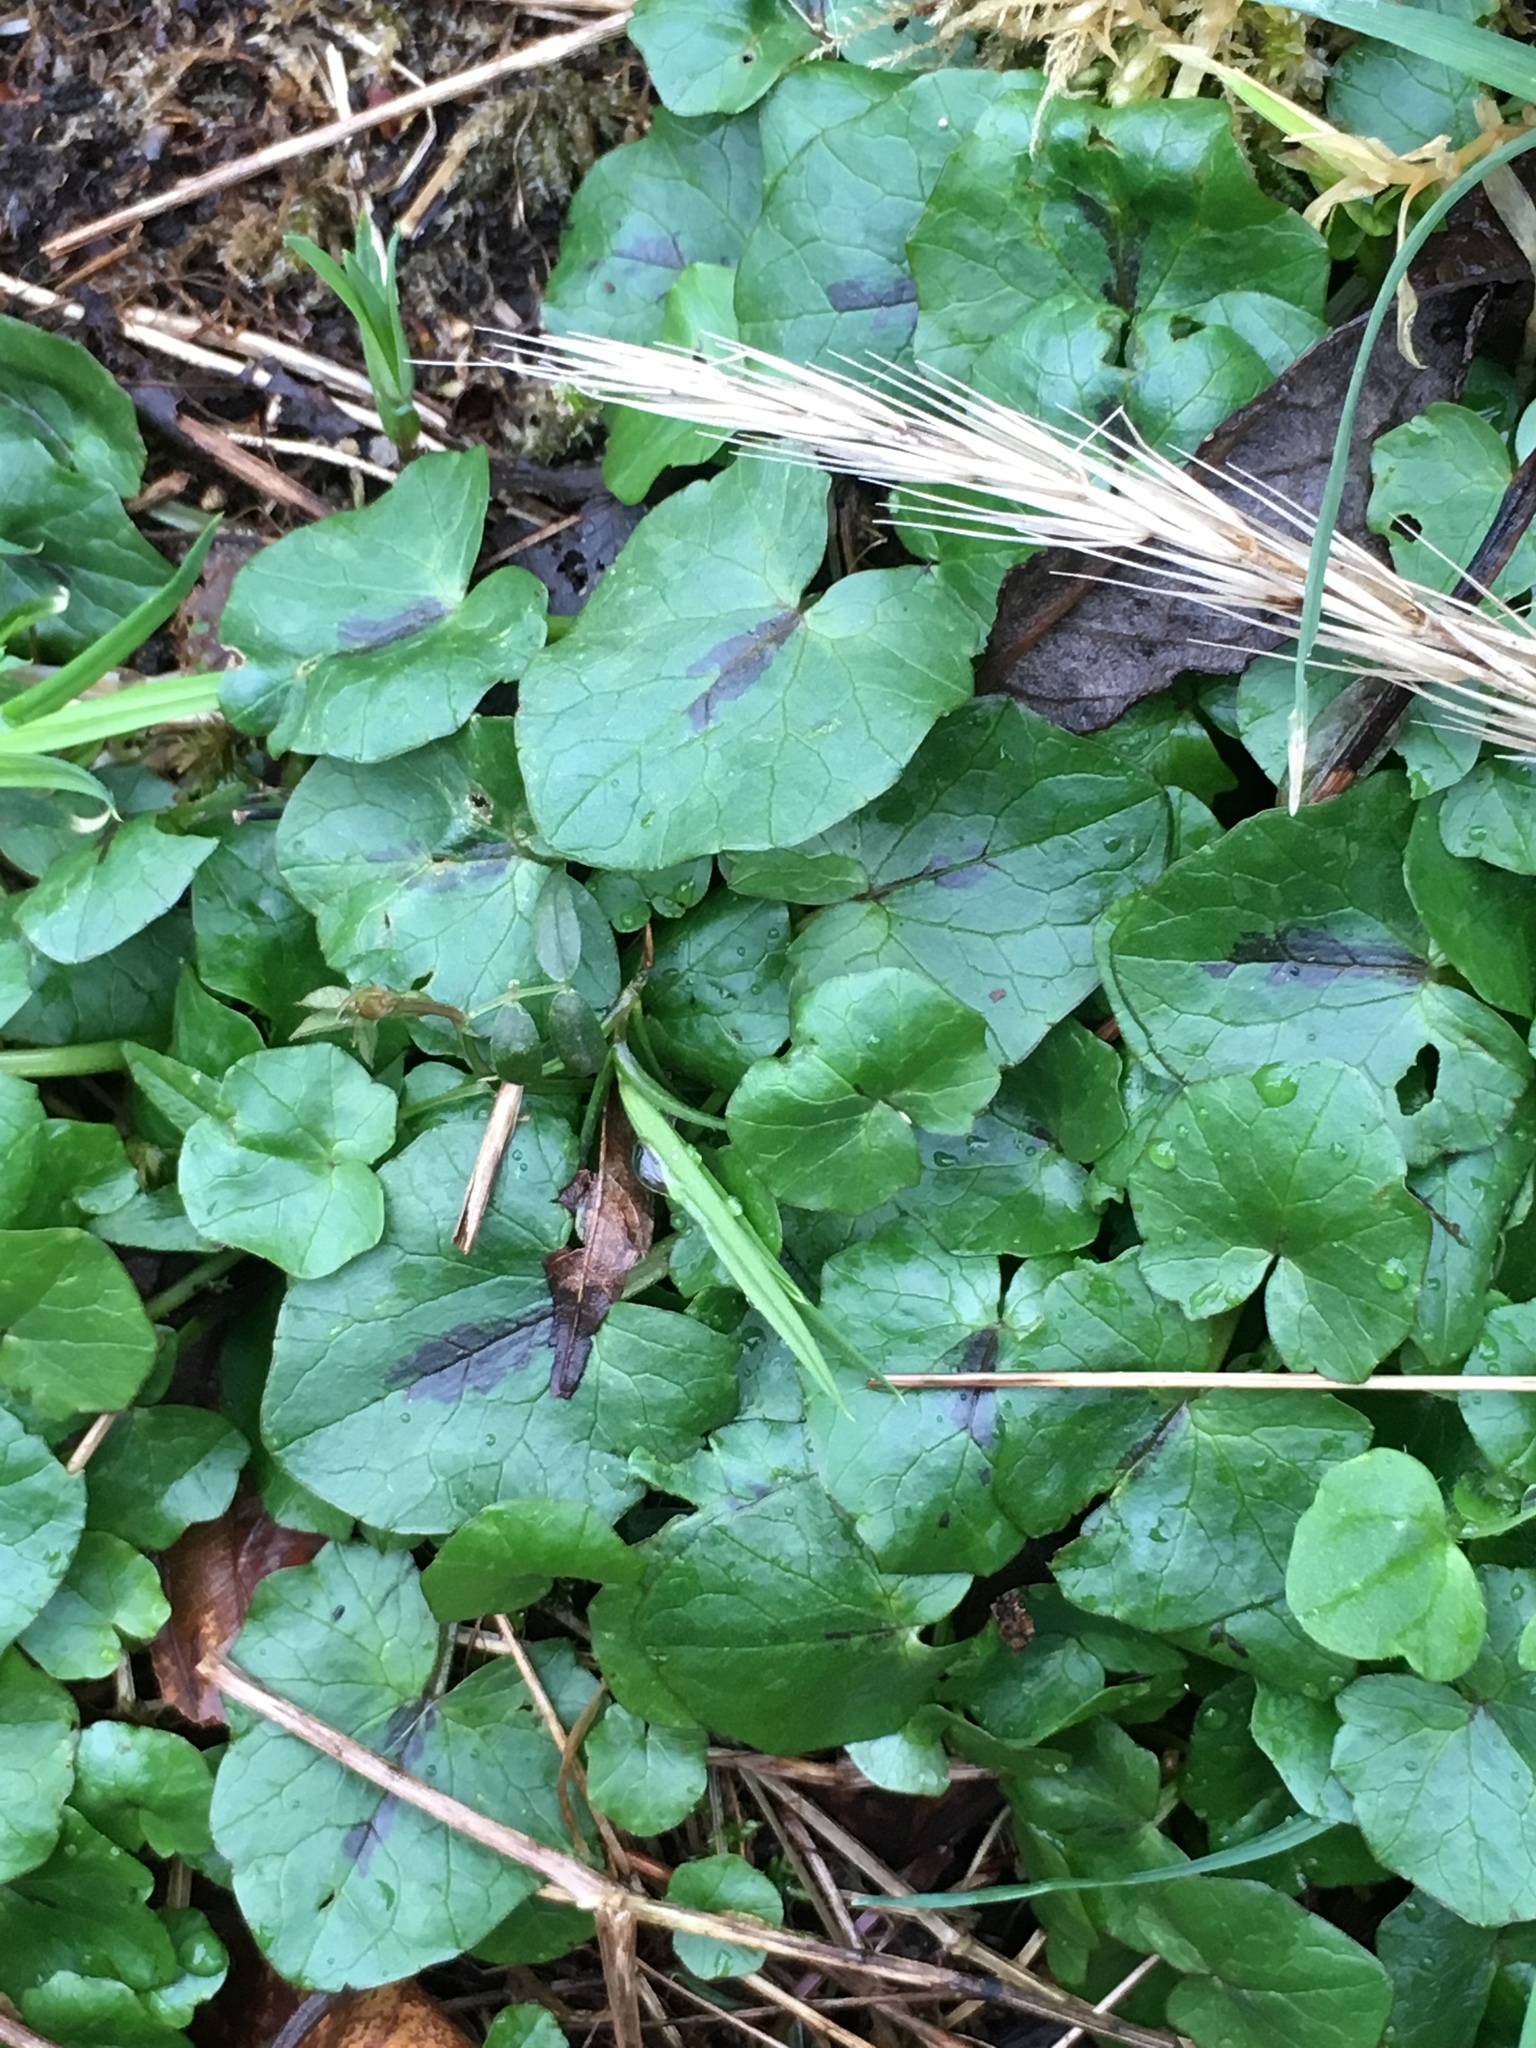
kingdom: Plantae
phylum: Tracheophyta
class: Magnoliopsida
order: Ranunculales
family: Ranunculaceae
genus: Ficaria
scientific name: Ficaria verna
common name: Lesser celandine
